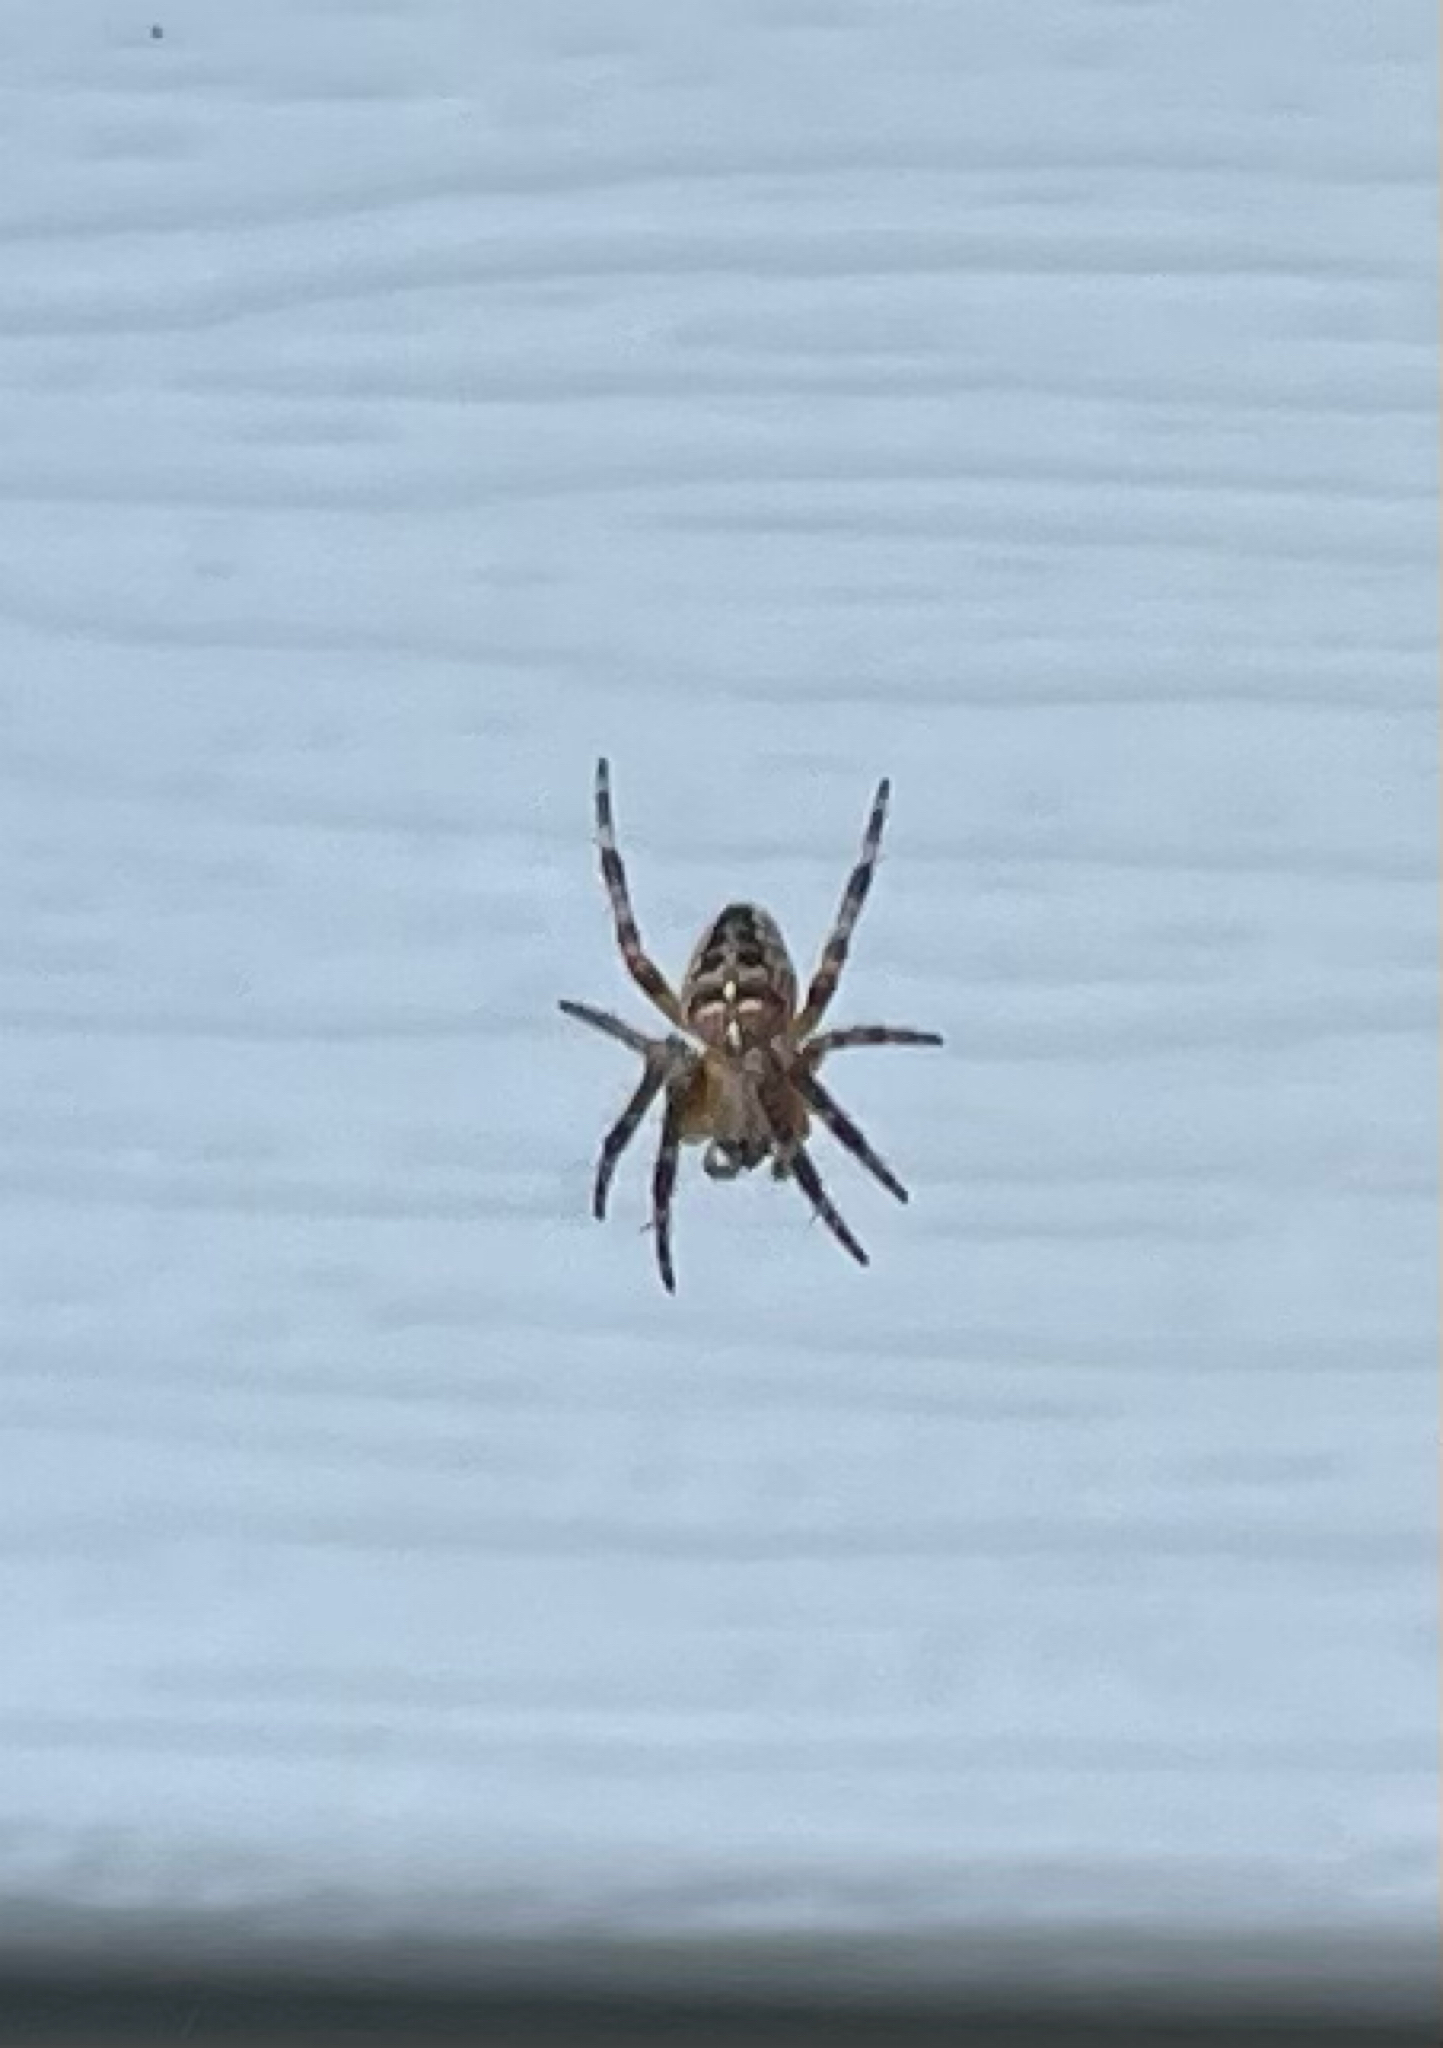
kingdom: Animalia
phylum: Arthropoda
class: Arachnida
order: Araneae
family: Araneidae
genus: Araneus
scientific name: Araneus diadematus
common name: Cross orbweaver
